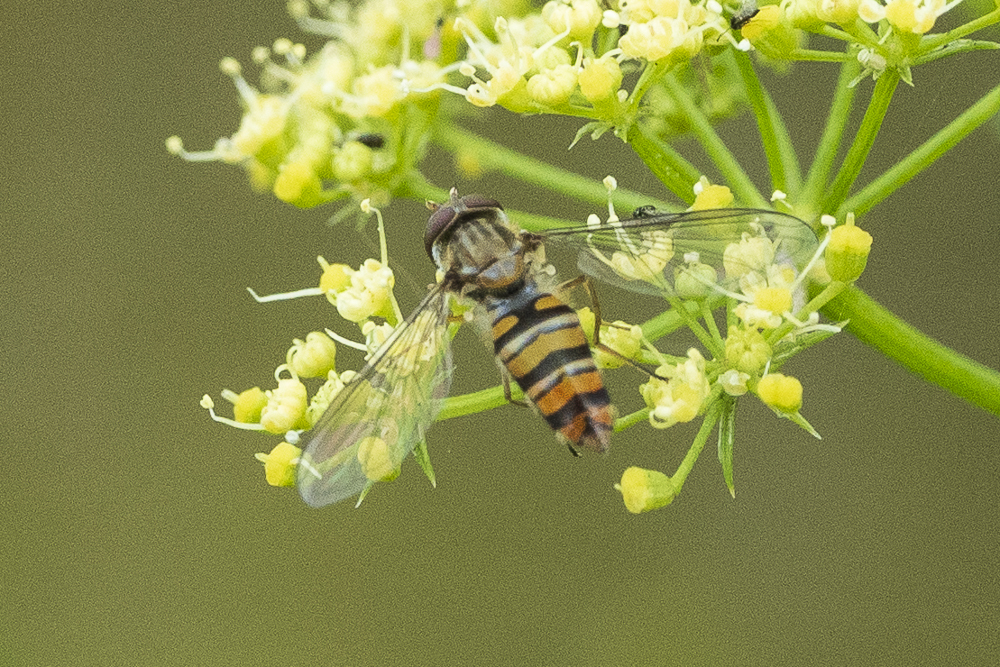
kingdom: Animalia
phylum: Arthropoda
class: Insecta
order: Diptera
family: Syrphidae
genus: Episyrphus
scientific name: Episyrphus balteatus
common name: Marmalade hoverfly
